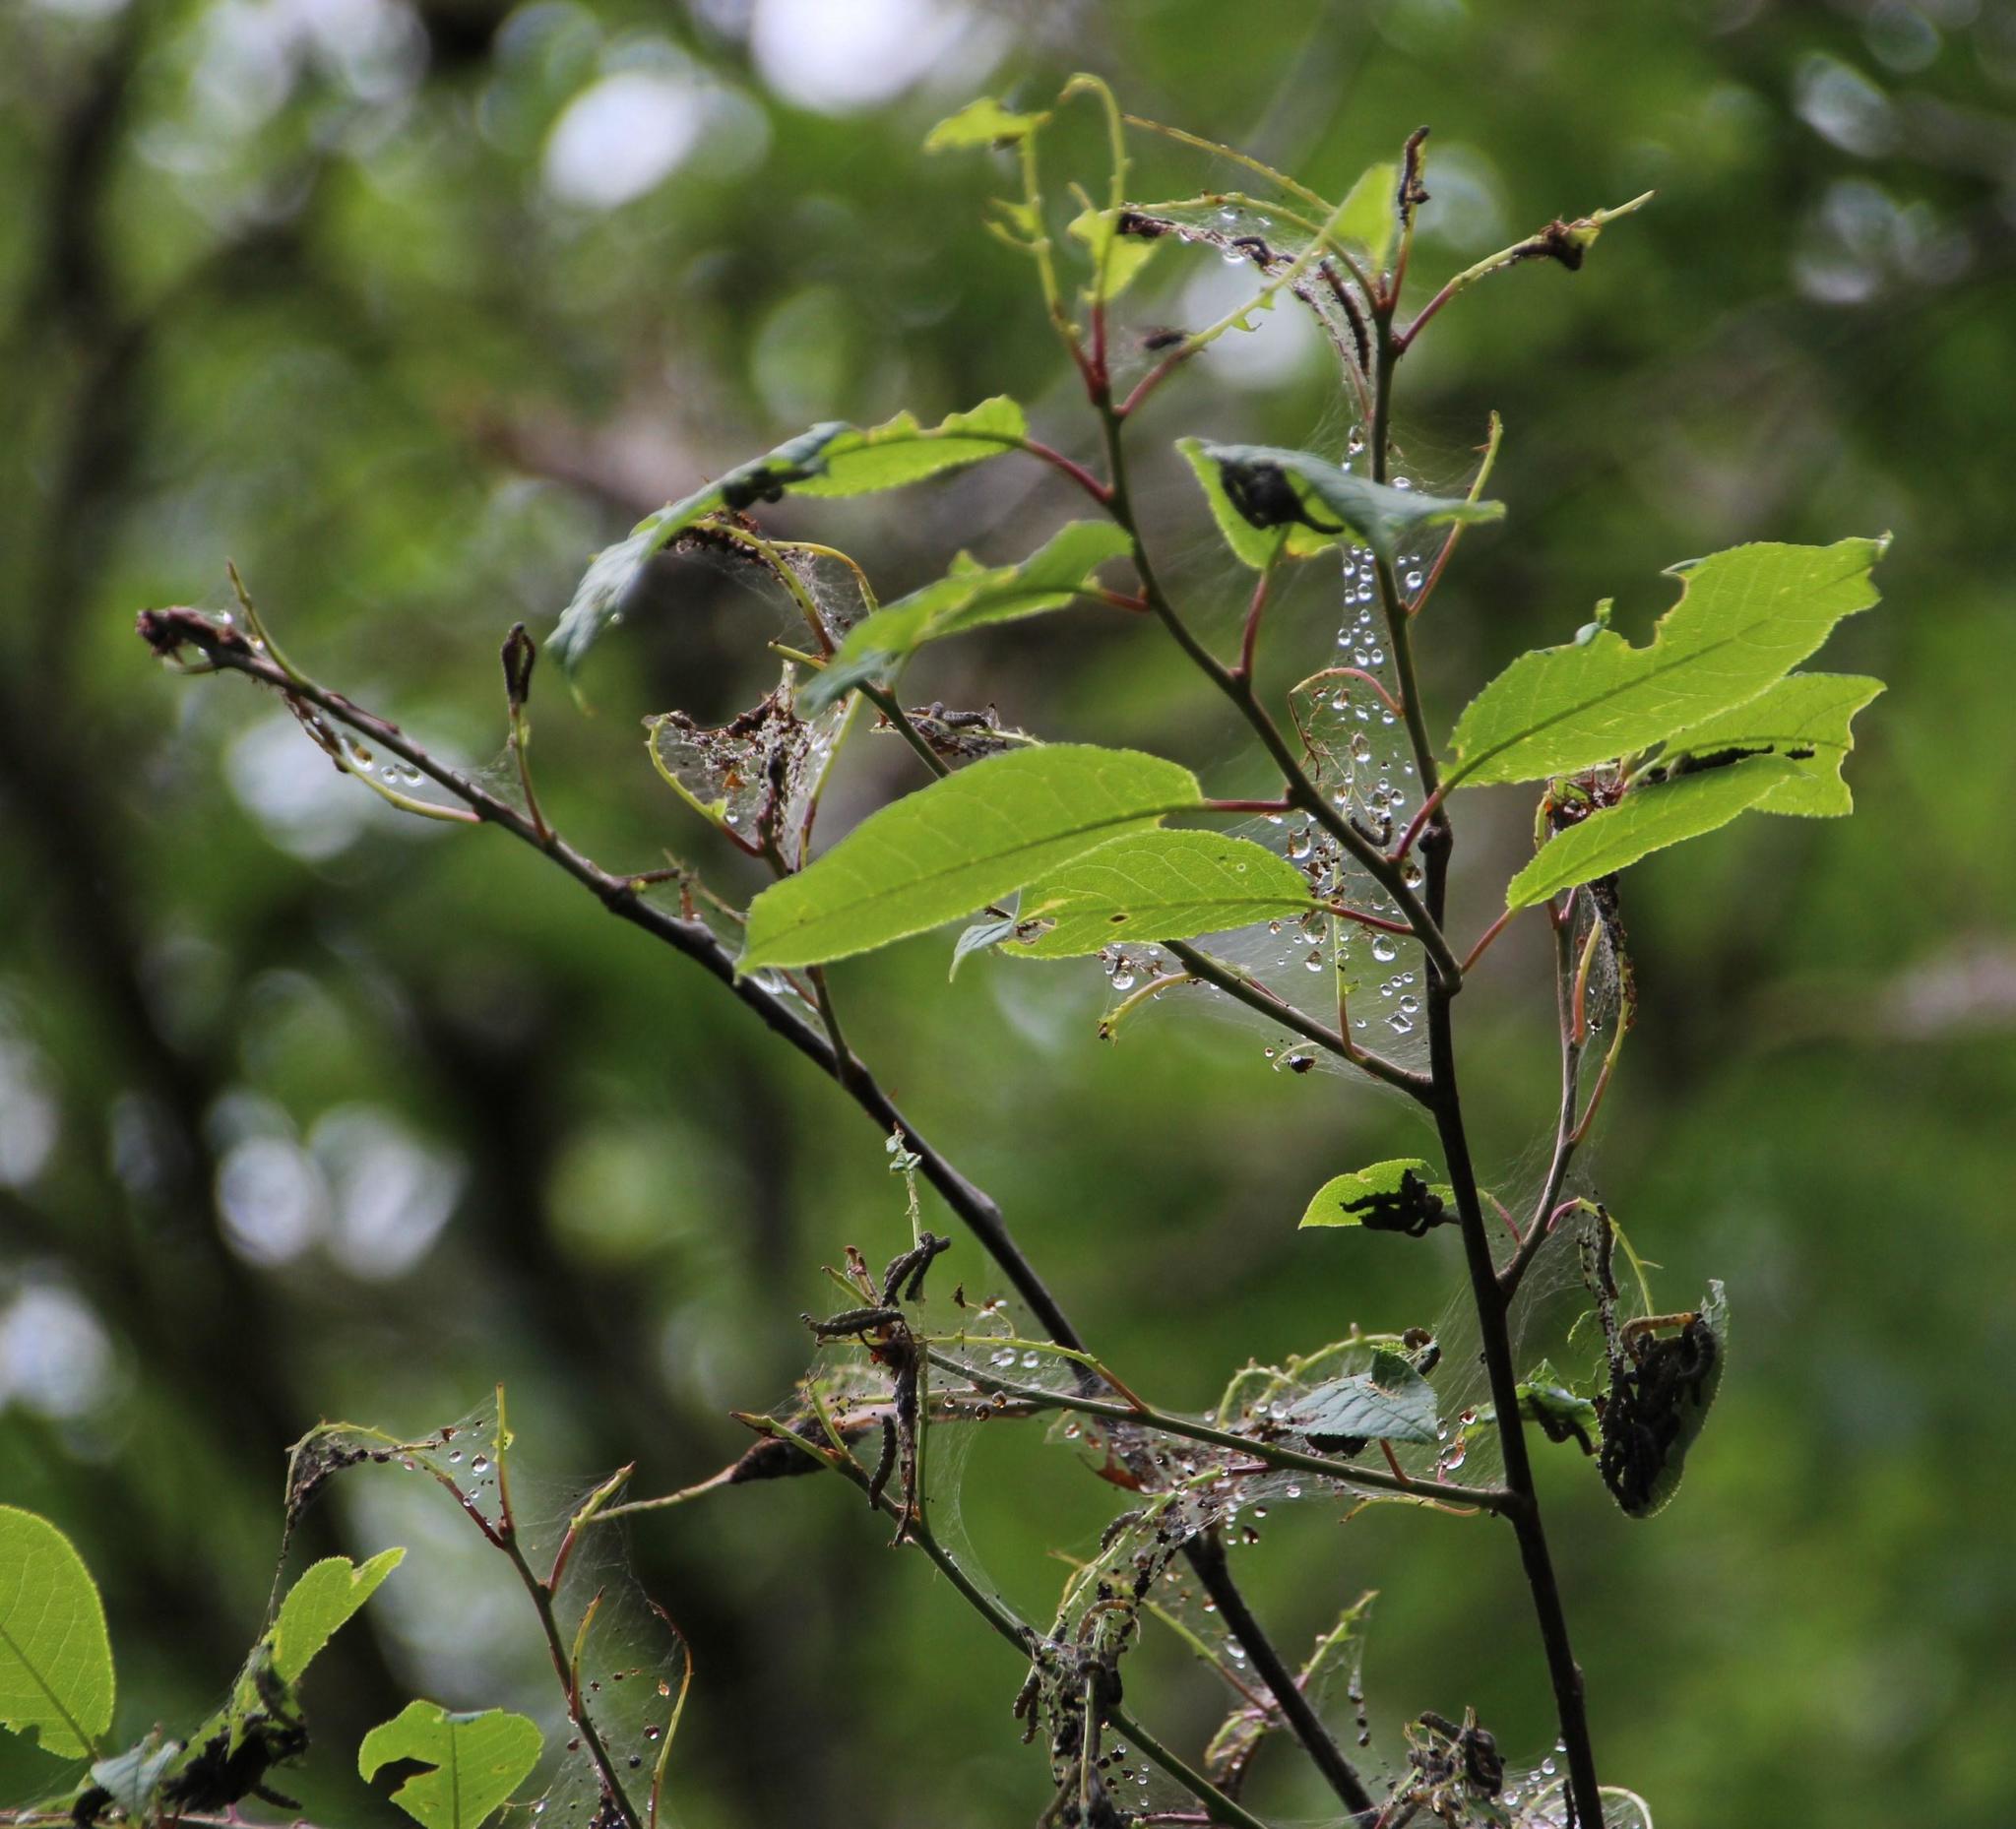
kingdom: Plantae
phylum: Tracheophyta
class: Magnoliopsida
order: Rosales
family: Rosaceae
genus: Prunus
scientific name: Prunus padus
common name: Bird cherry
